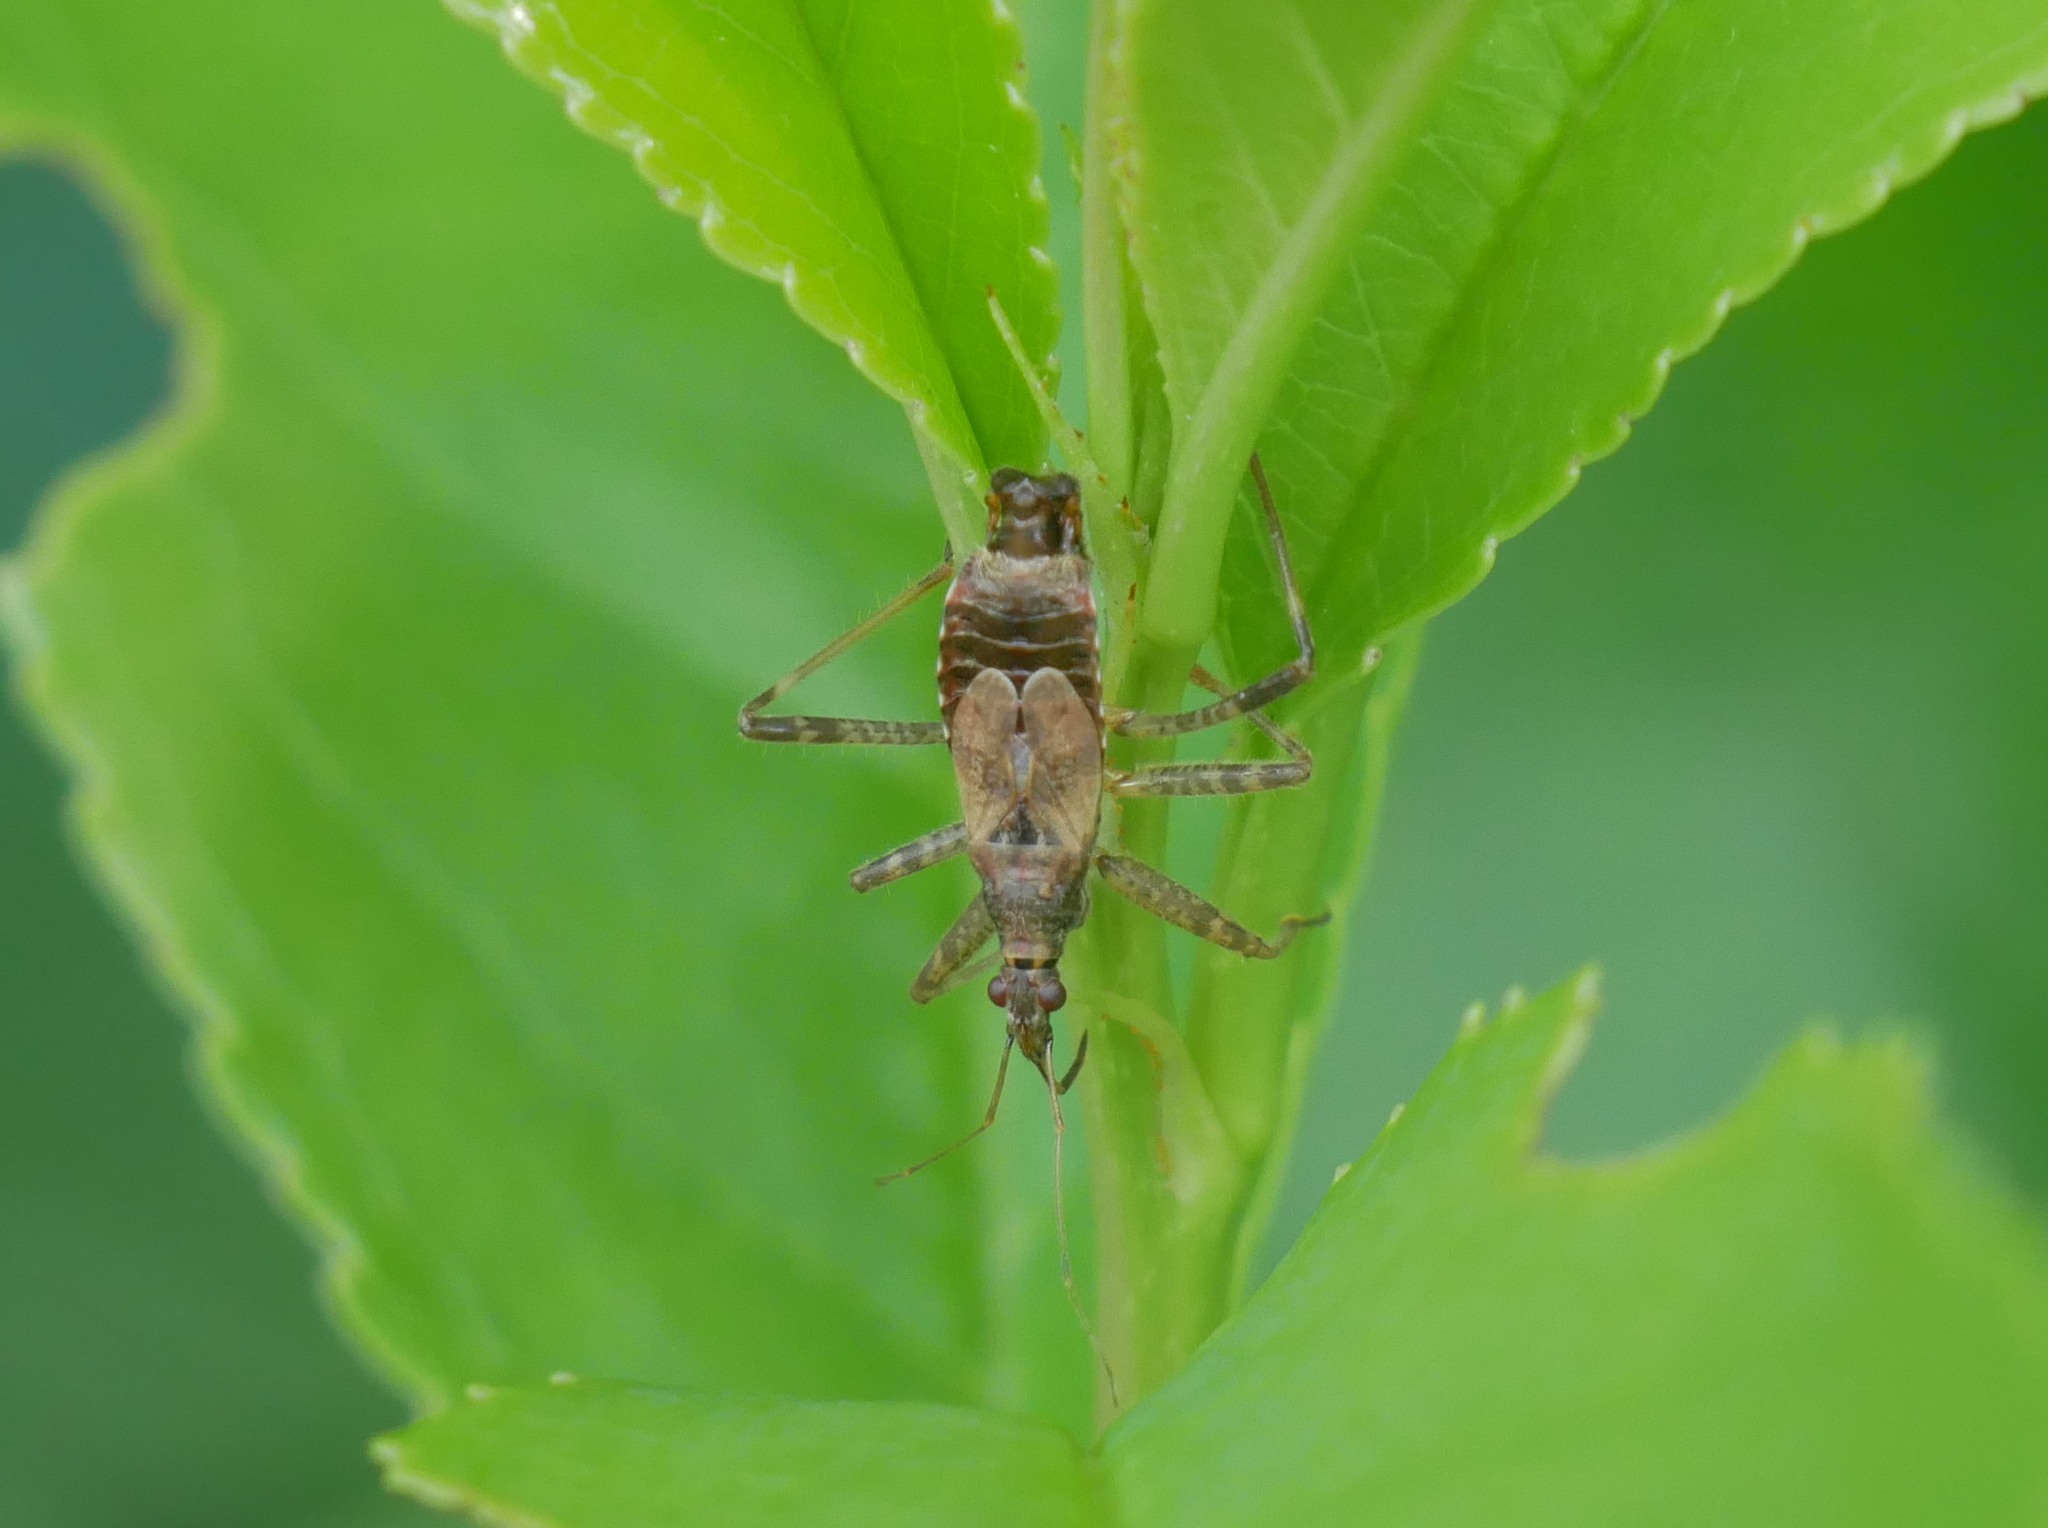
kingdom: Animalia
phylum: Arthropoda
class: Insecta
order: Hemiptera
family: Nabidae
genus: Himacerus
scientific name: Himacerus apterus
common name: Tree damsel bug
